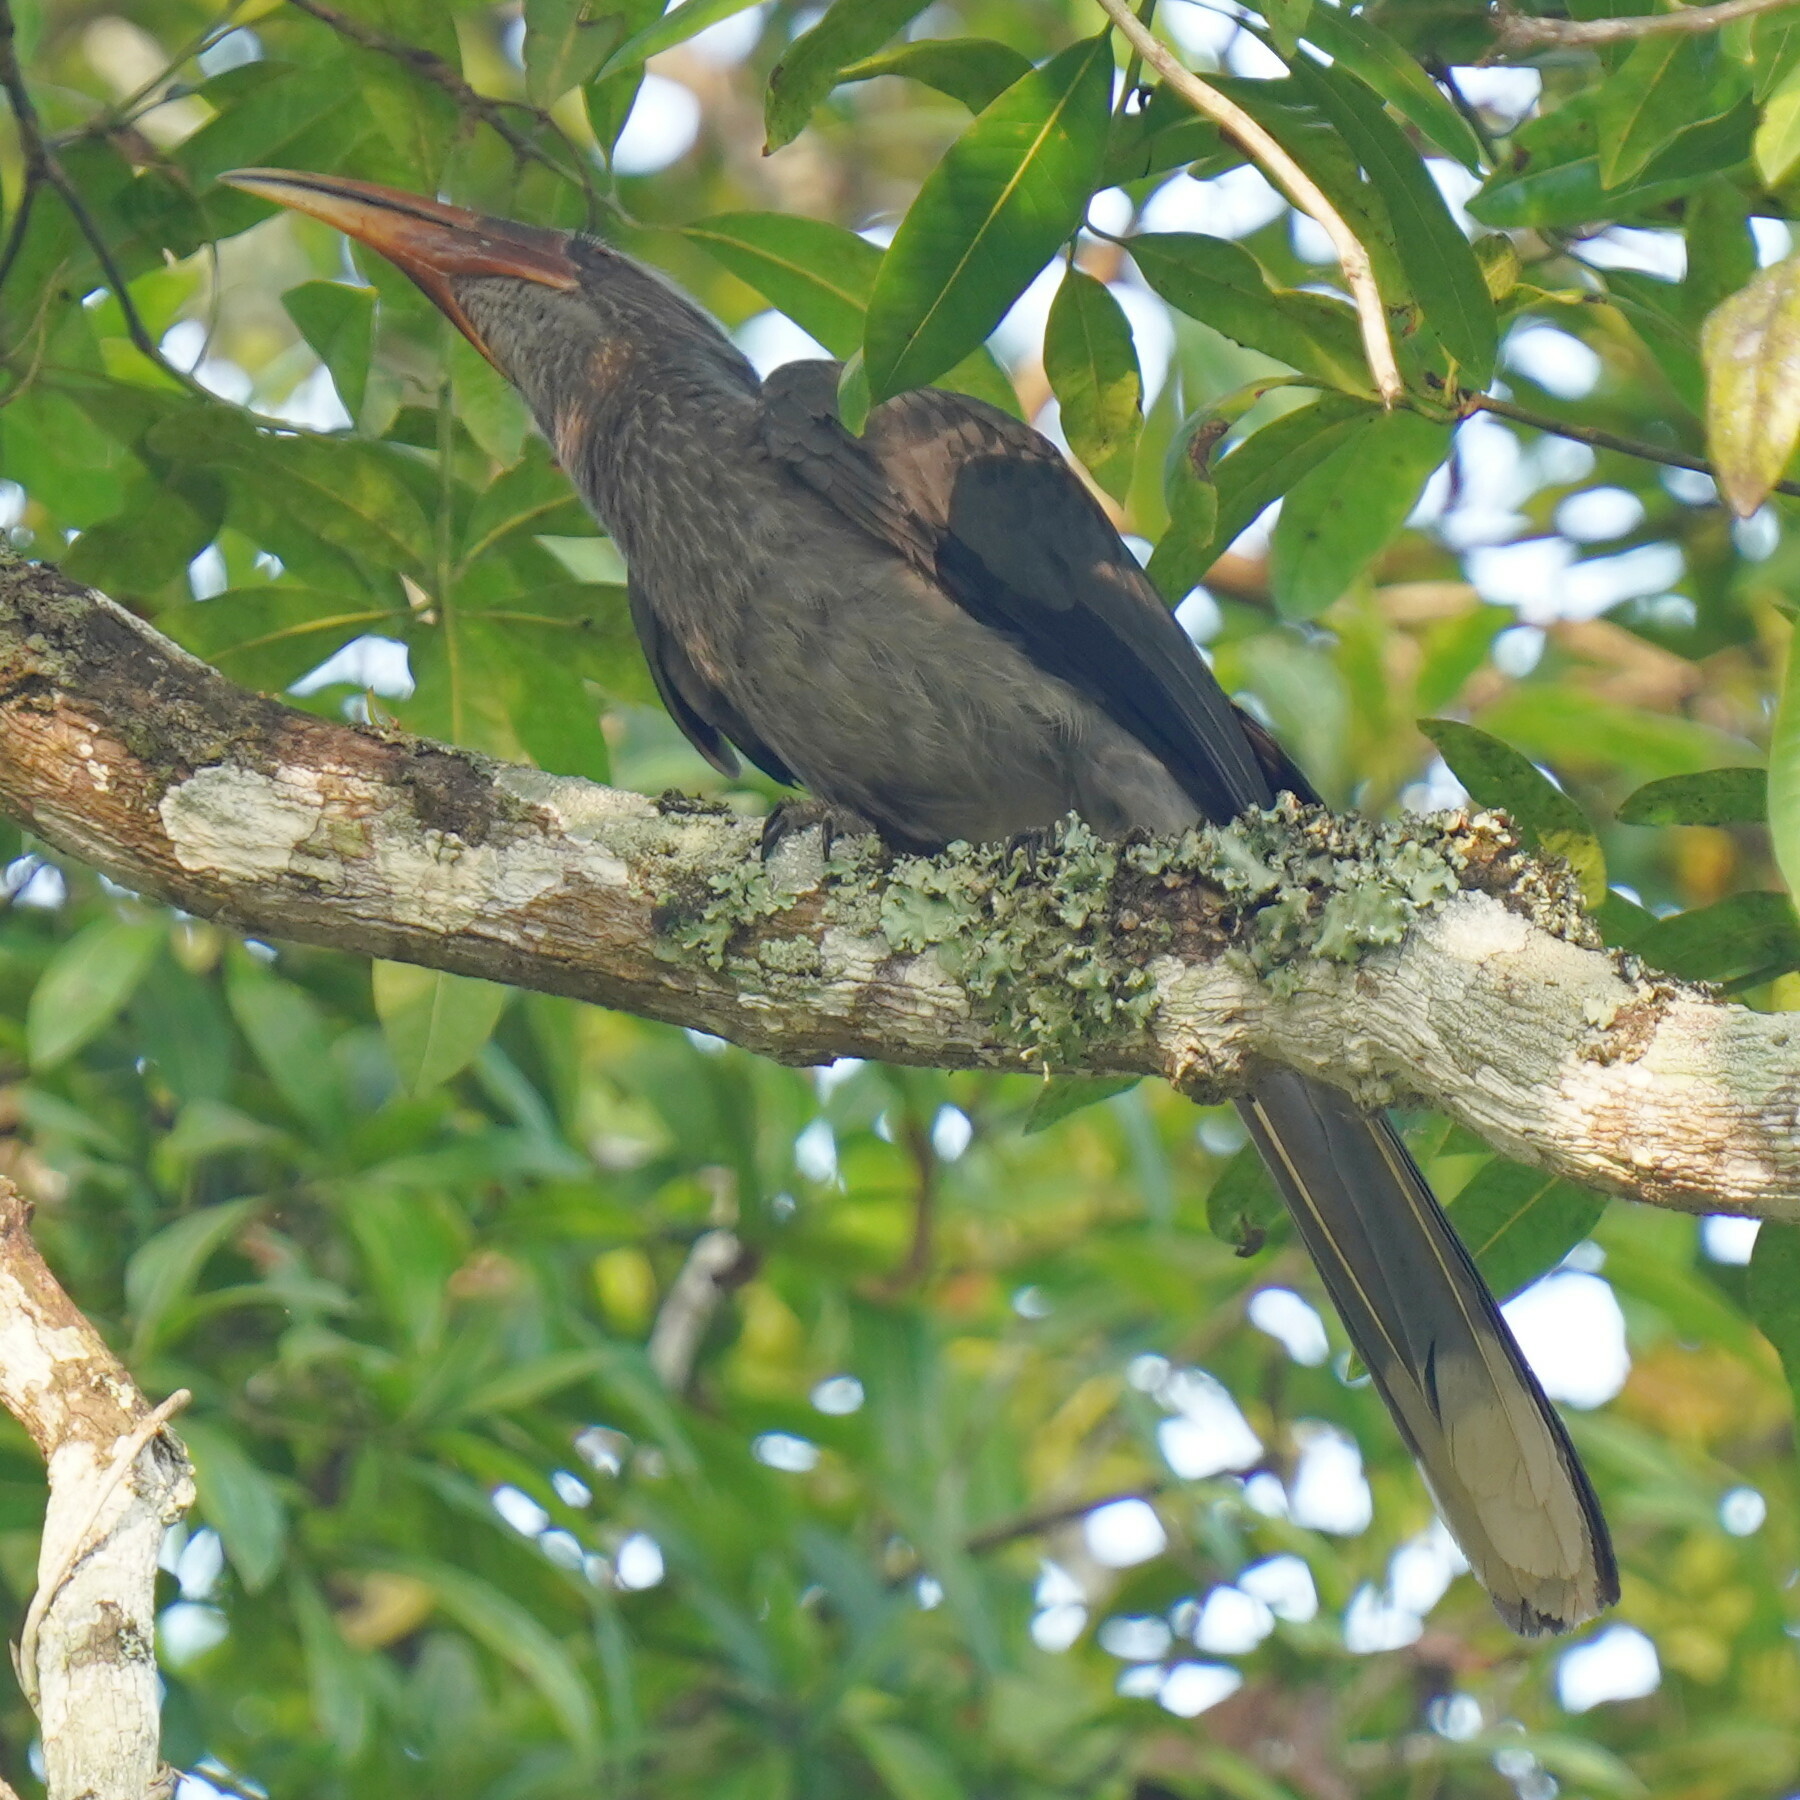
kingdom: Animalia
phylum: Chordata
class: Aves
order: Bucerotiformes
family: Bucerotidae
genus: Ocyceros
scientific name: Ocyceros griseus
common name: Malabar grey hornbill
